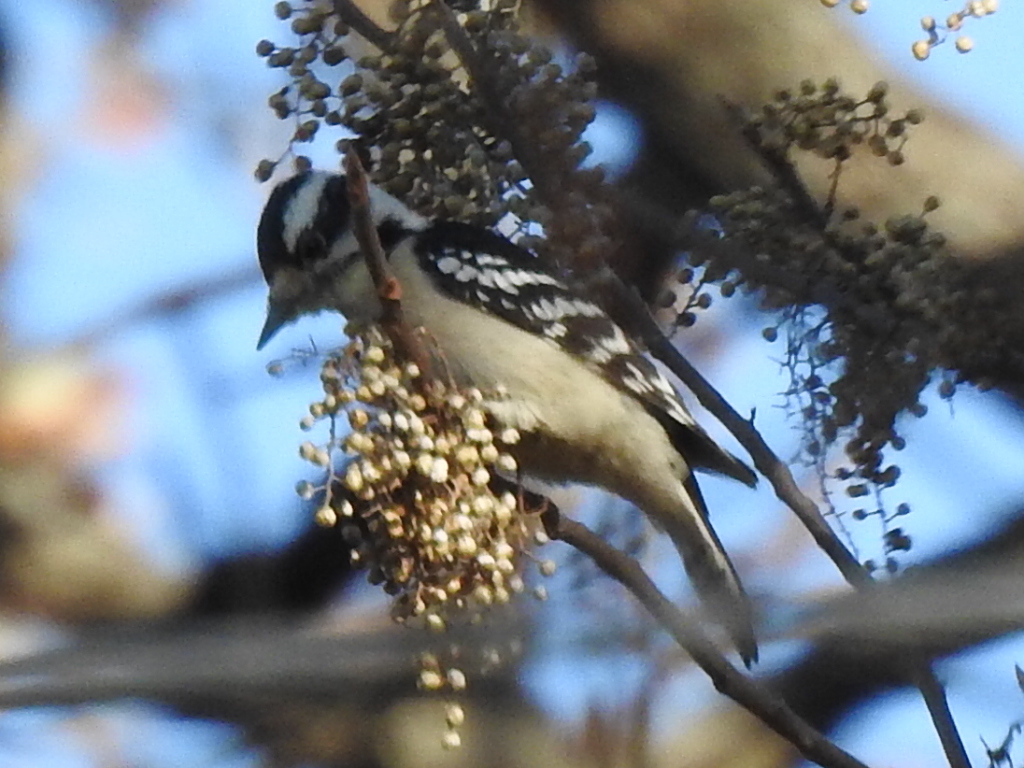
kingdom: Animalia
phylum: Chordata
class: Aves
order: Piciformes
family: Picidae
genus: Dryobates
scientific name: Dryobates pubescens
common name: Downy woodpecker
